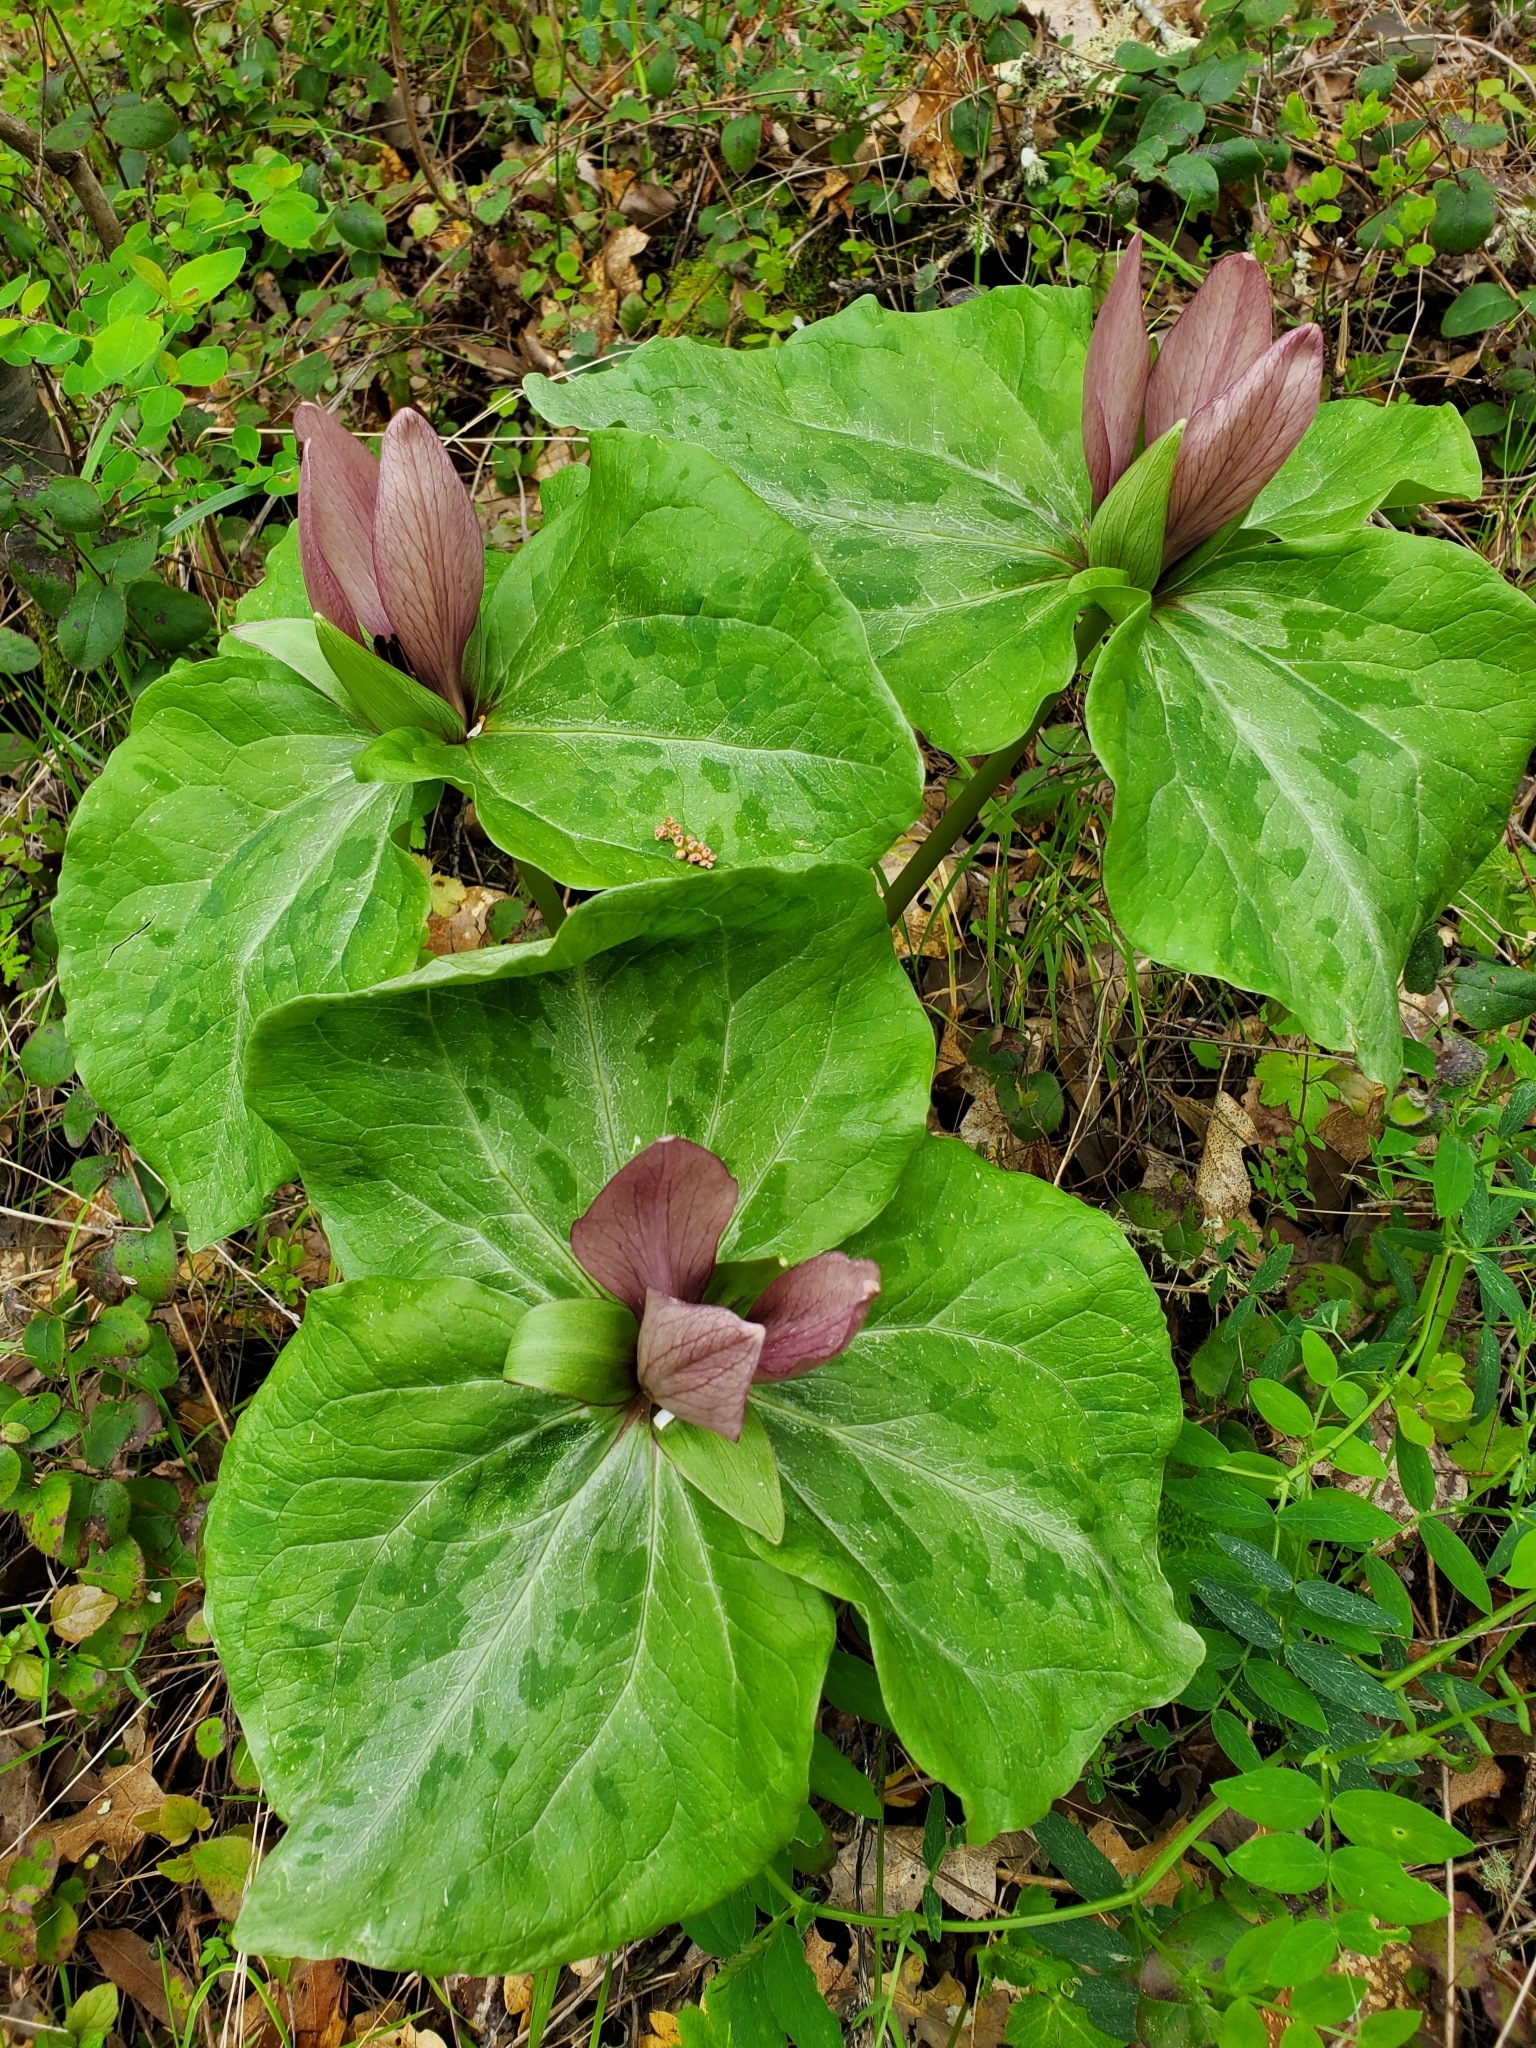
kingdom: Plantae
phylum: Tracheophyta
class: Liliopsida
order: Liliales
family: Melanthiaceae
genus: Trillium
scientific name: Trillium chloropetalum
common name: Giant trillium
